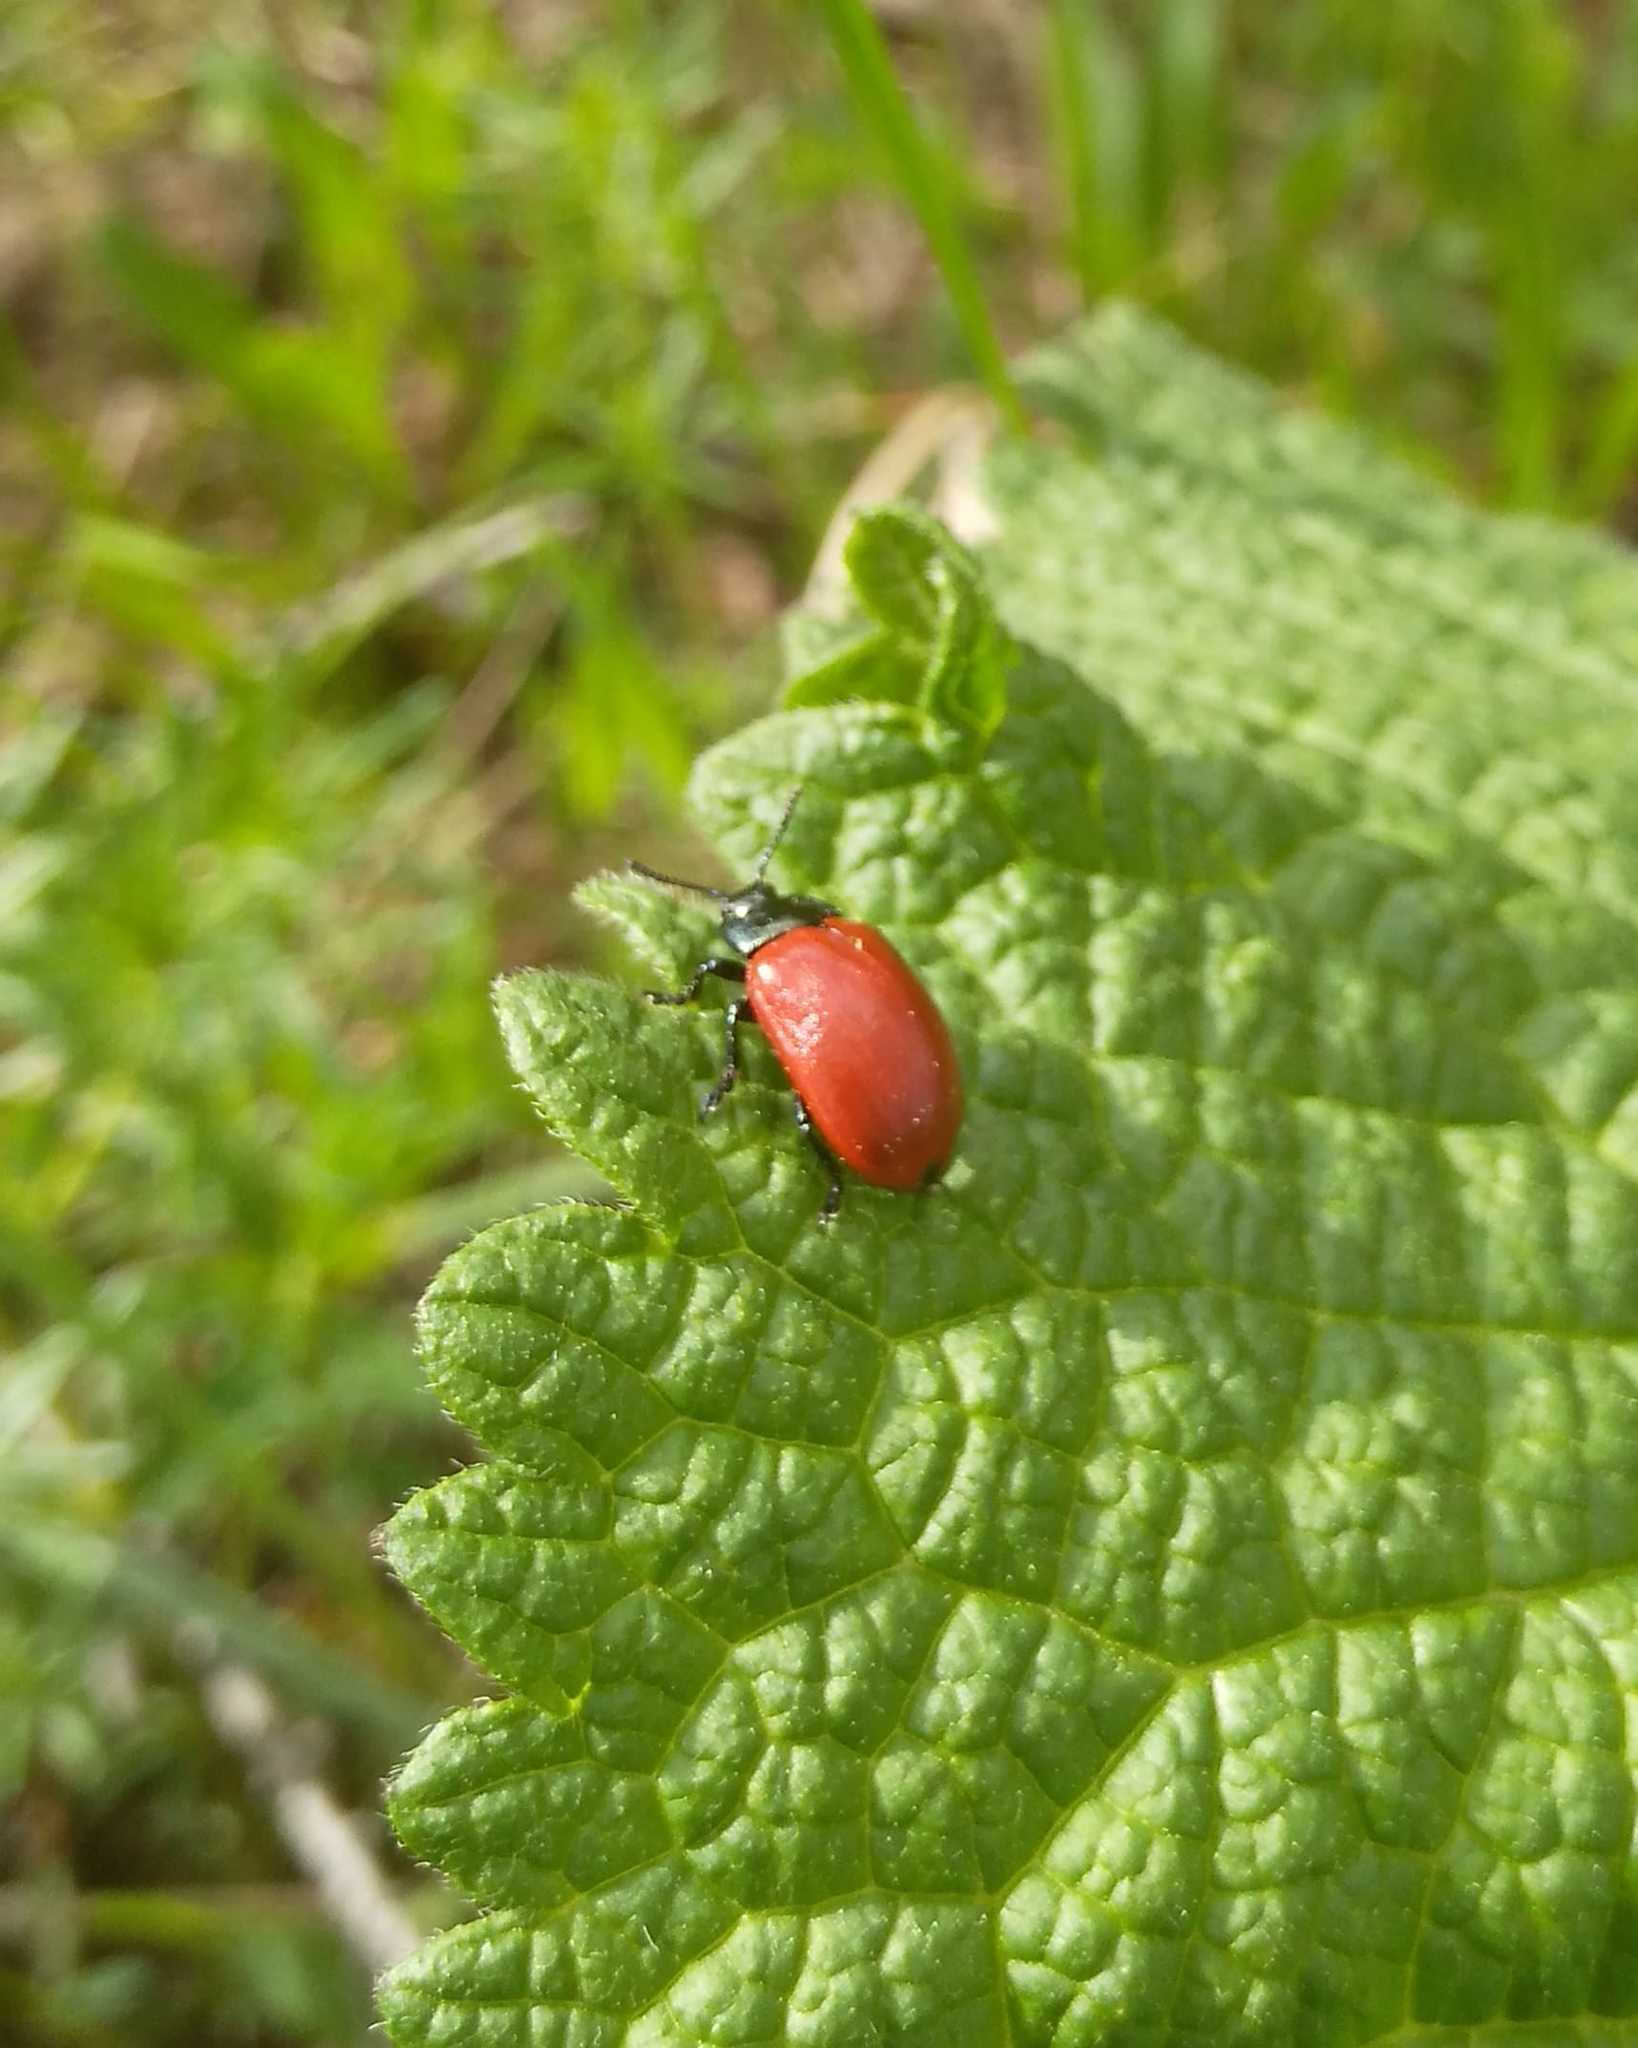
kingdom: Animalia
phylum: Arthropoda
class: Insecta
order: Coleoptera
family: Chrysomelidae
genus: Chrysomela
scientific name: Chrysomela populi
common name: Red poplar leaf beetle
